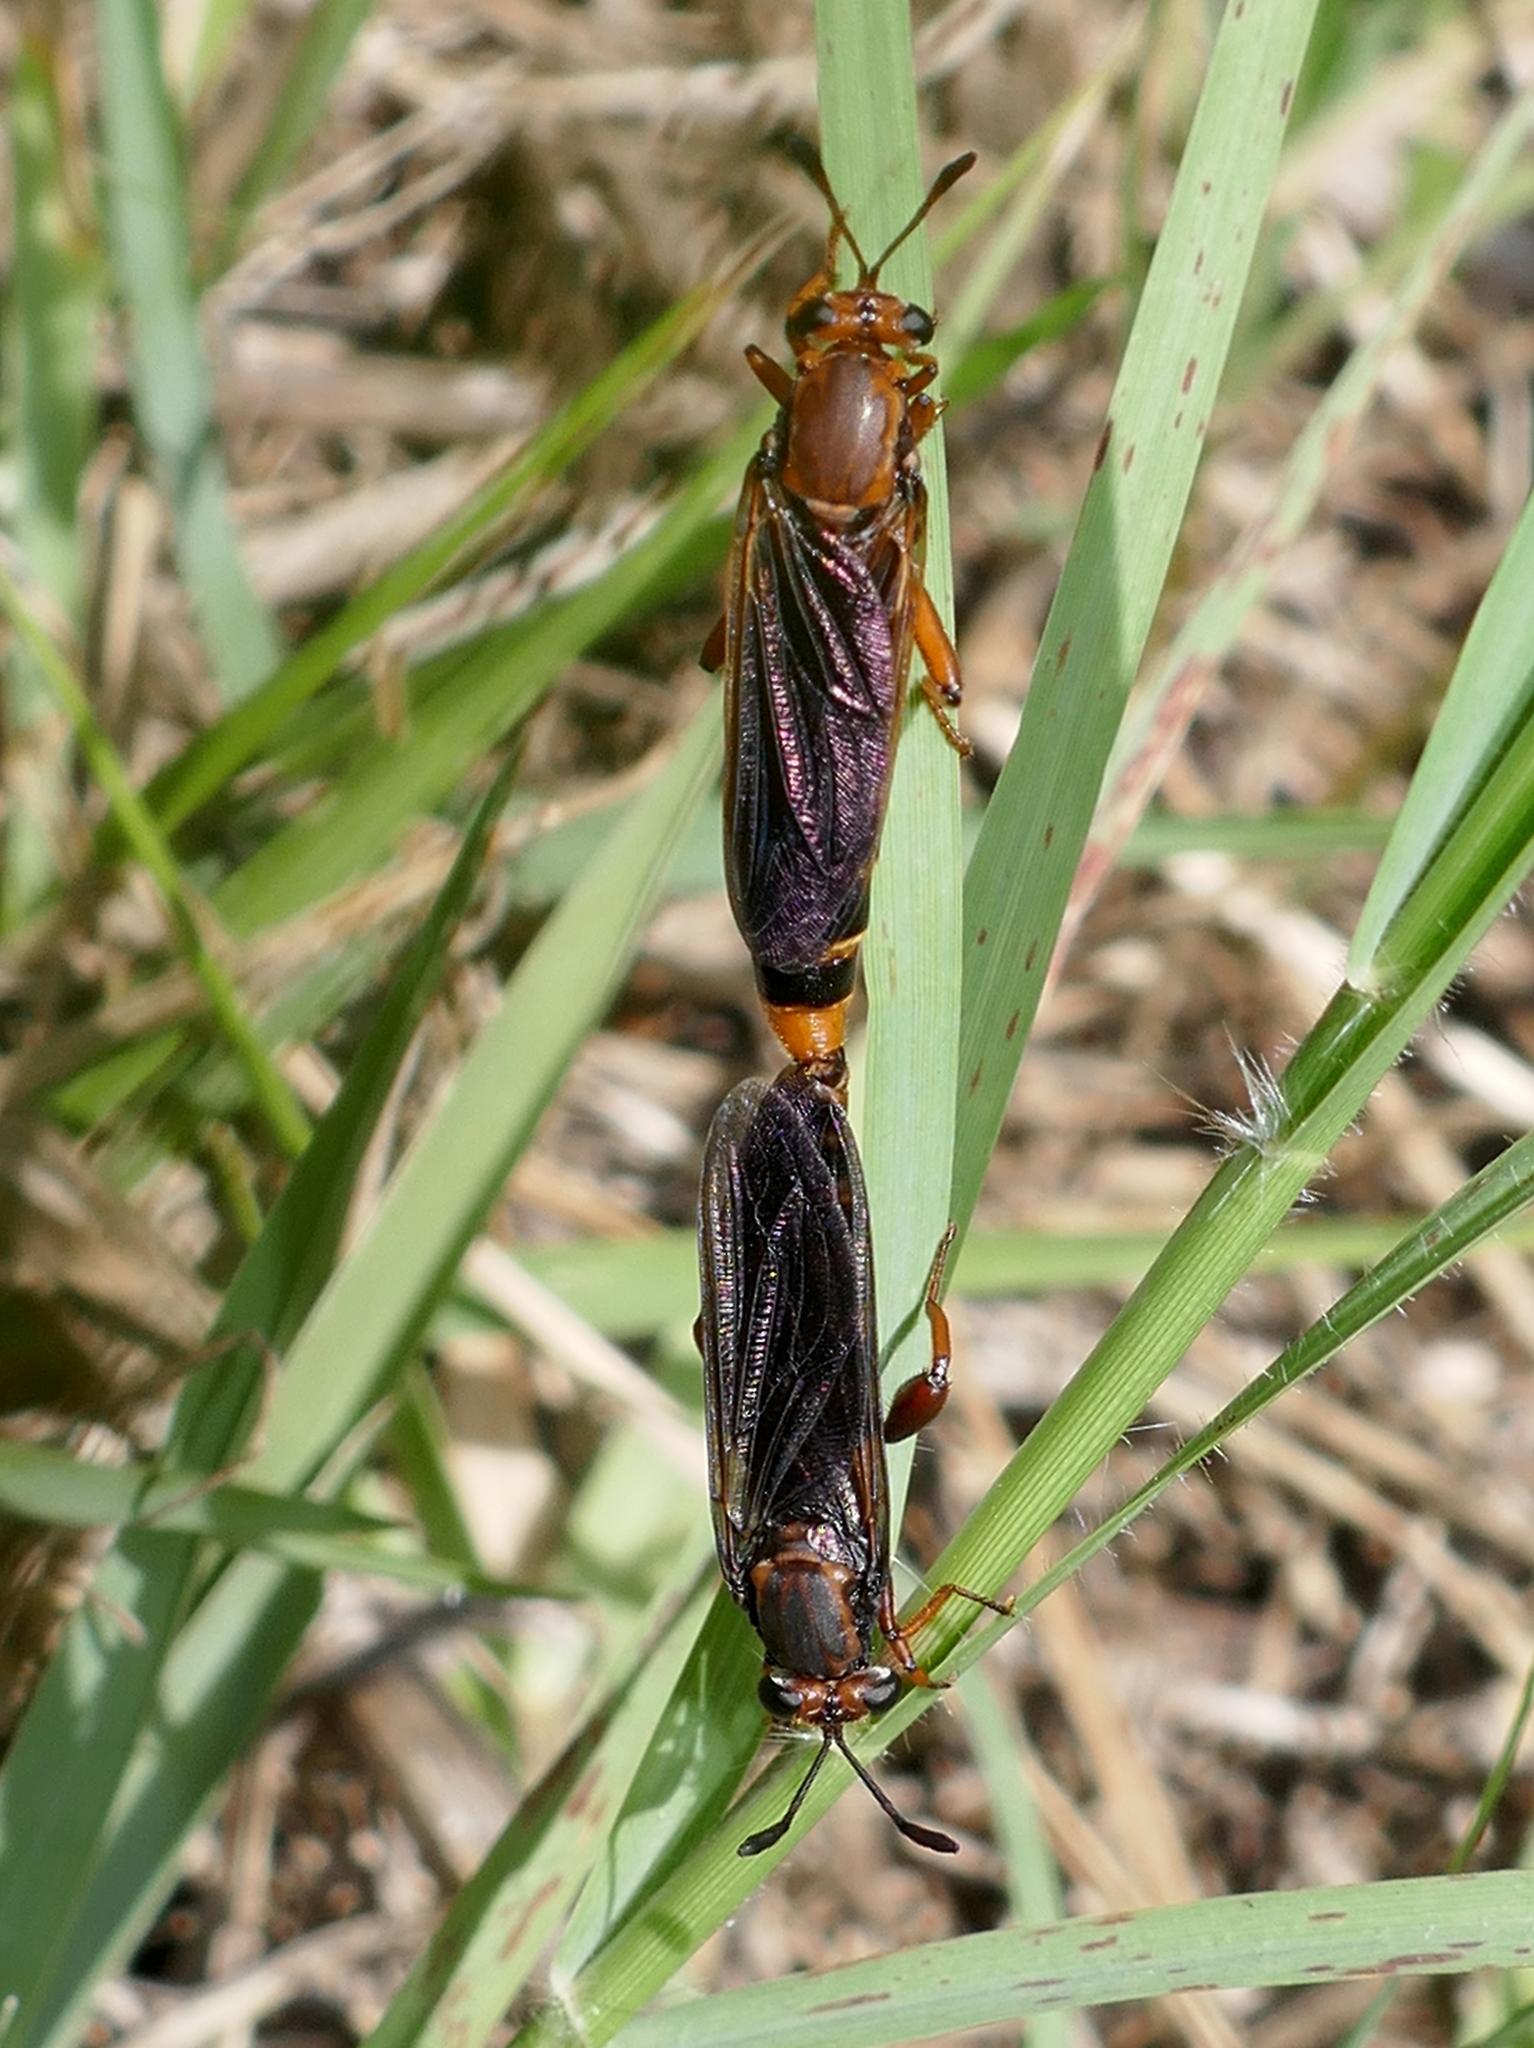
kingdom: Animalia
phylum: Arthropoda
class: Insecta
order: Diptera
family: Mydidae
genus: Phyllomydas
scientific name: Phyllomydas parvulus
